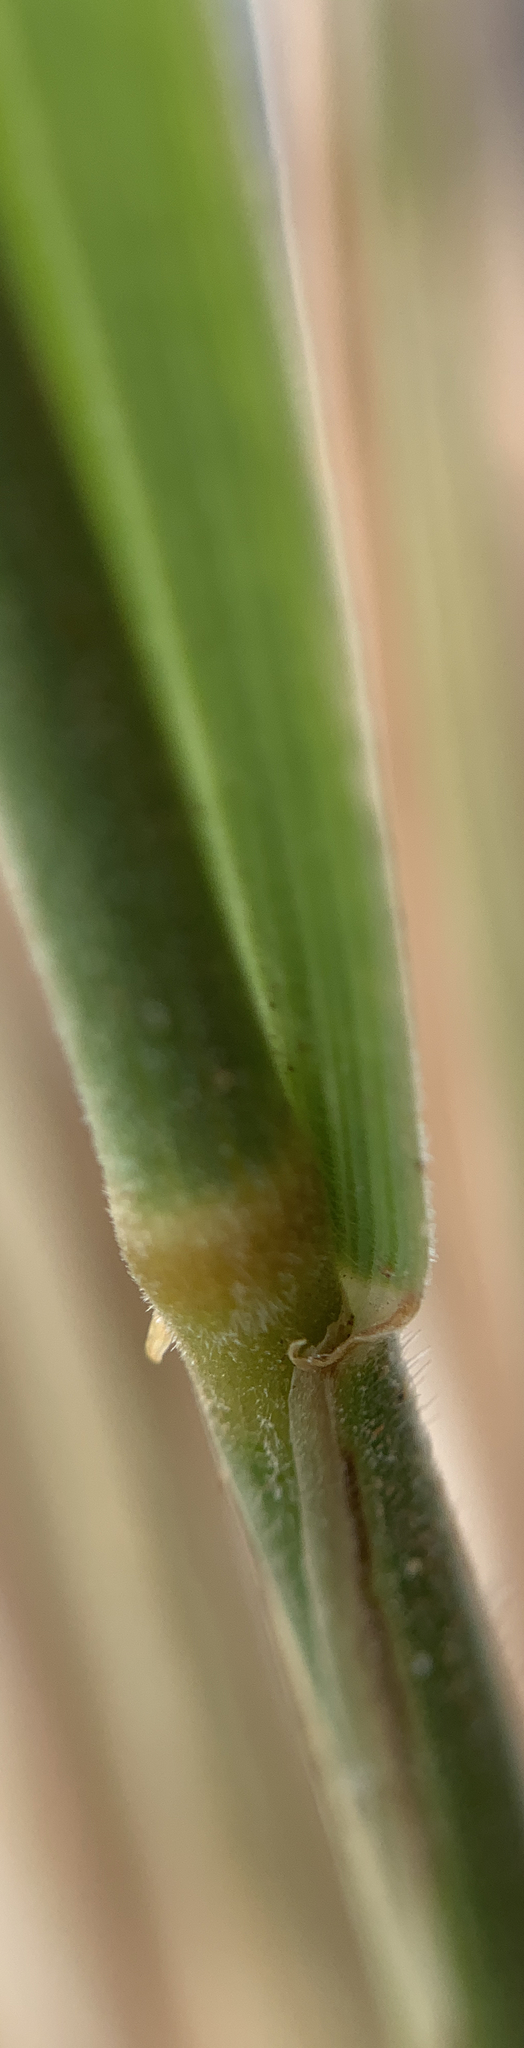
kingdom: Plantae
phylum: Tracheophyta
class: Liliopsida
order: Poales
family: Poaceae
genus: Pseudoroegneria
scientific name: Pseudoroegneria spicata
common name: Bluebunch wheatgrass
